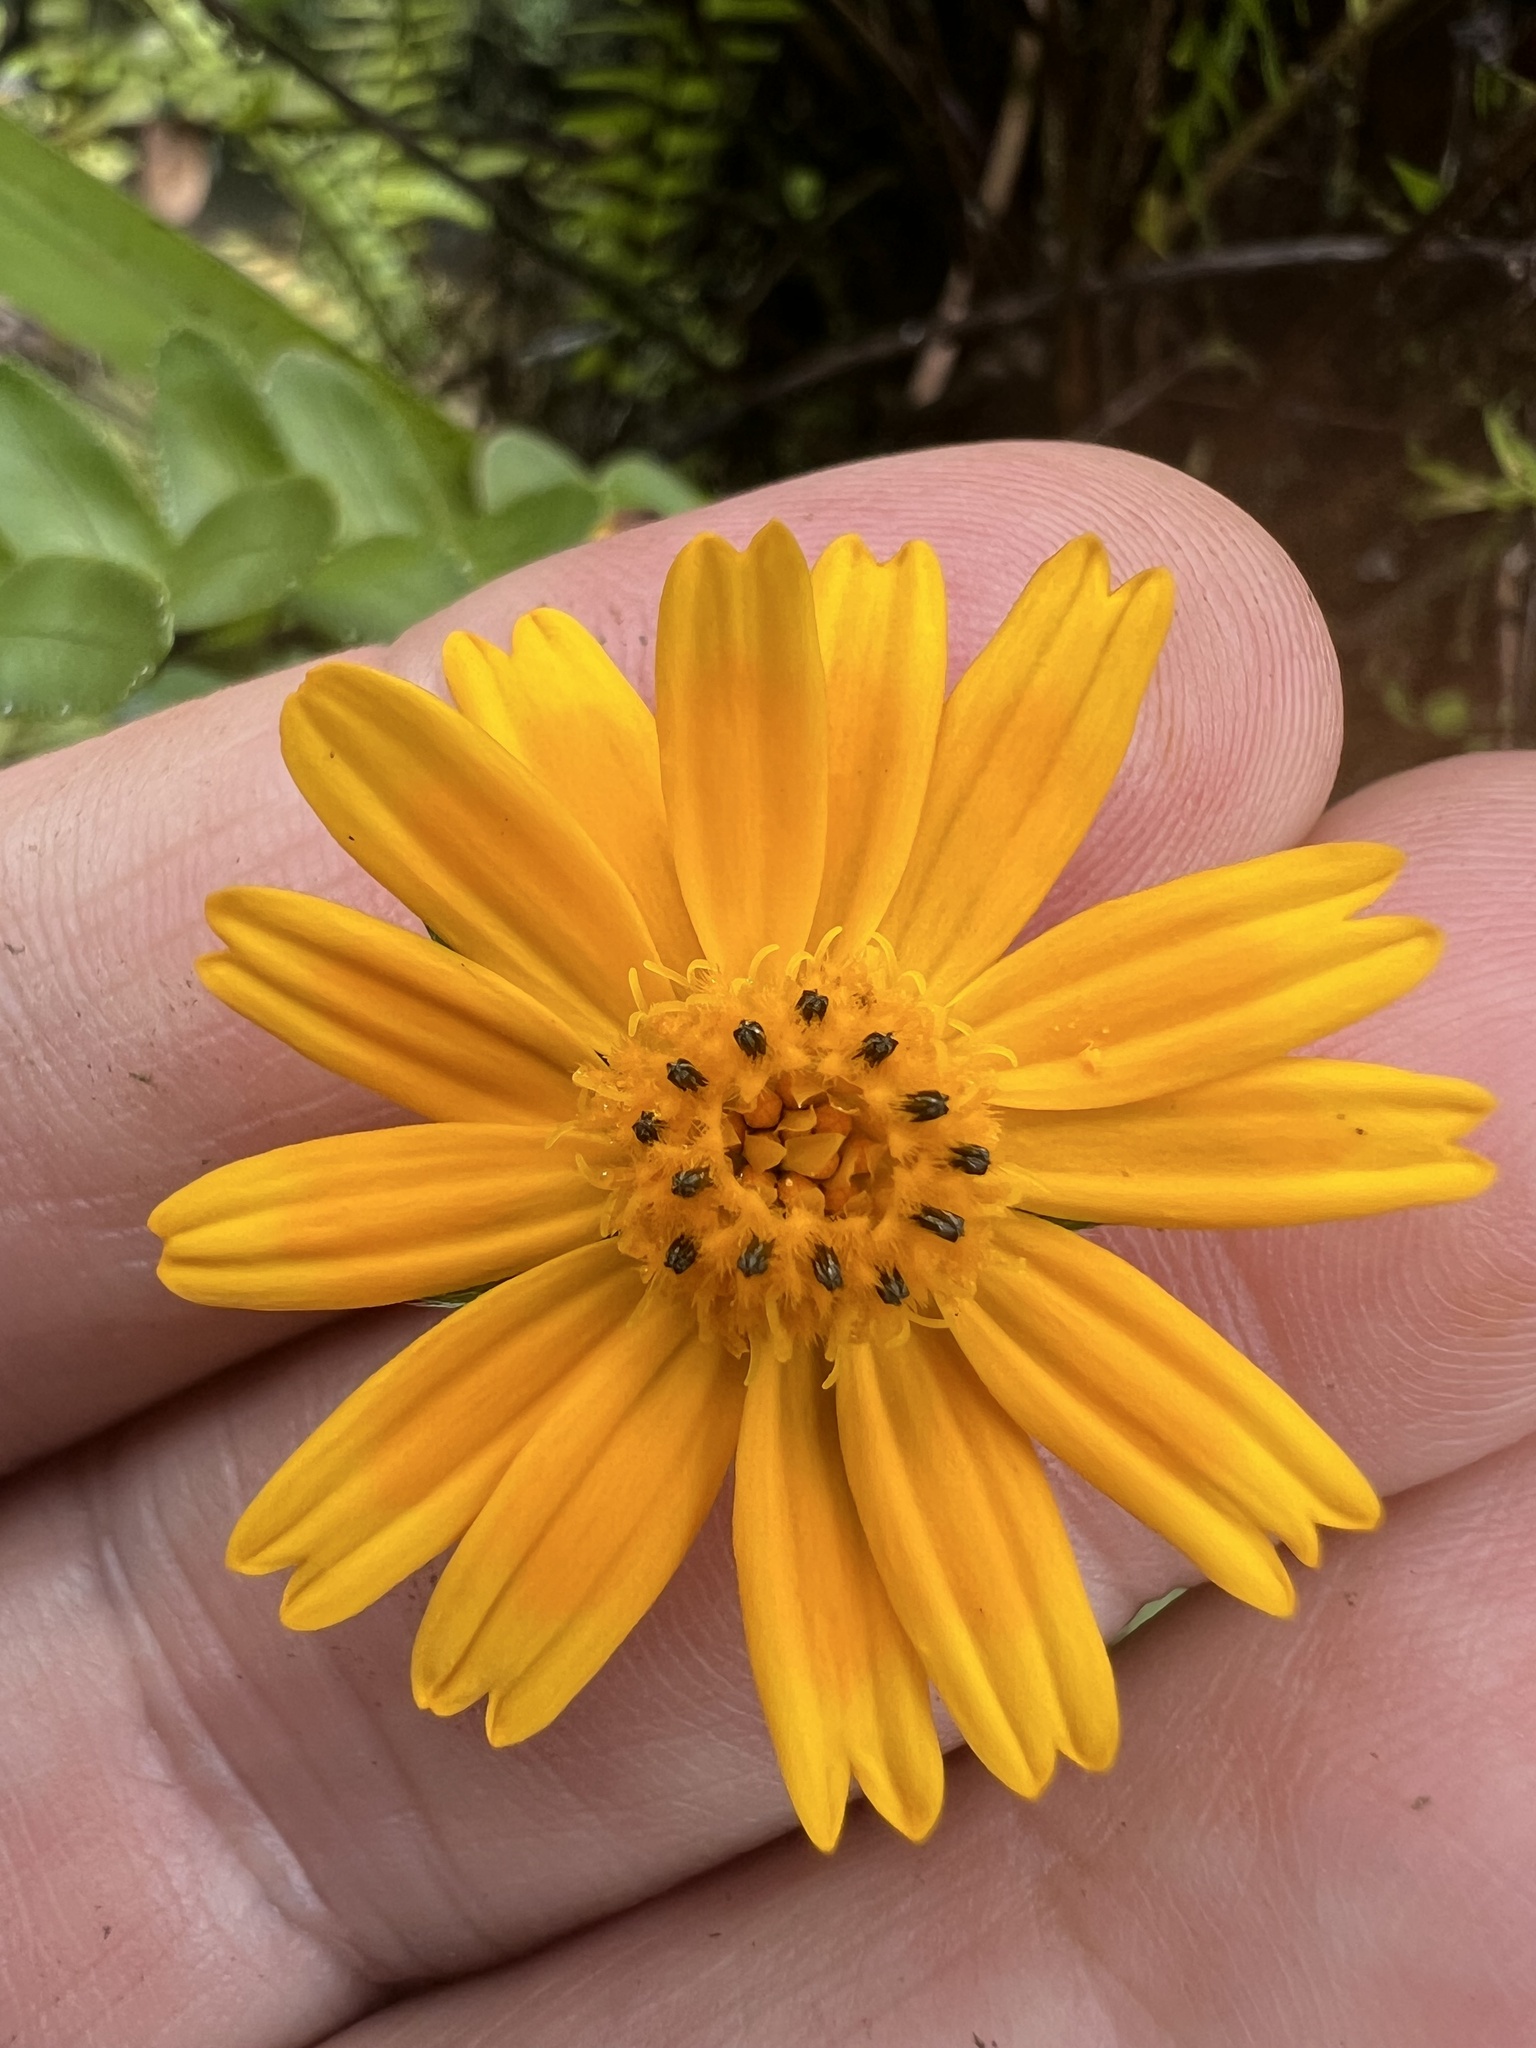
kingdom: Plantae
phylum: Tracheophyta
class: Magnoliopsida
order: Asterales
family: Asteraceae
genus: Sphagneticola
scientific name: Sphagneticola trilobata
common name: Bay biscayne creeping-oxeye
